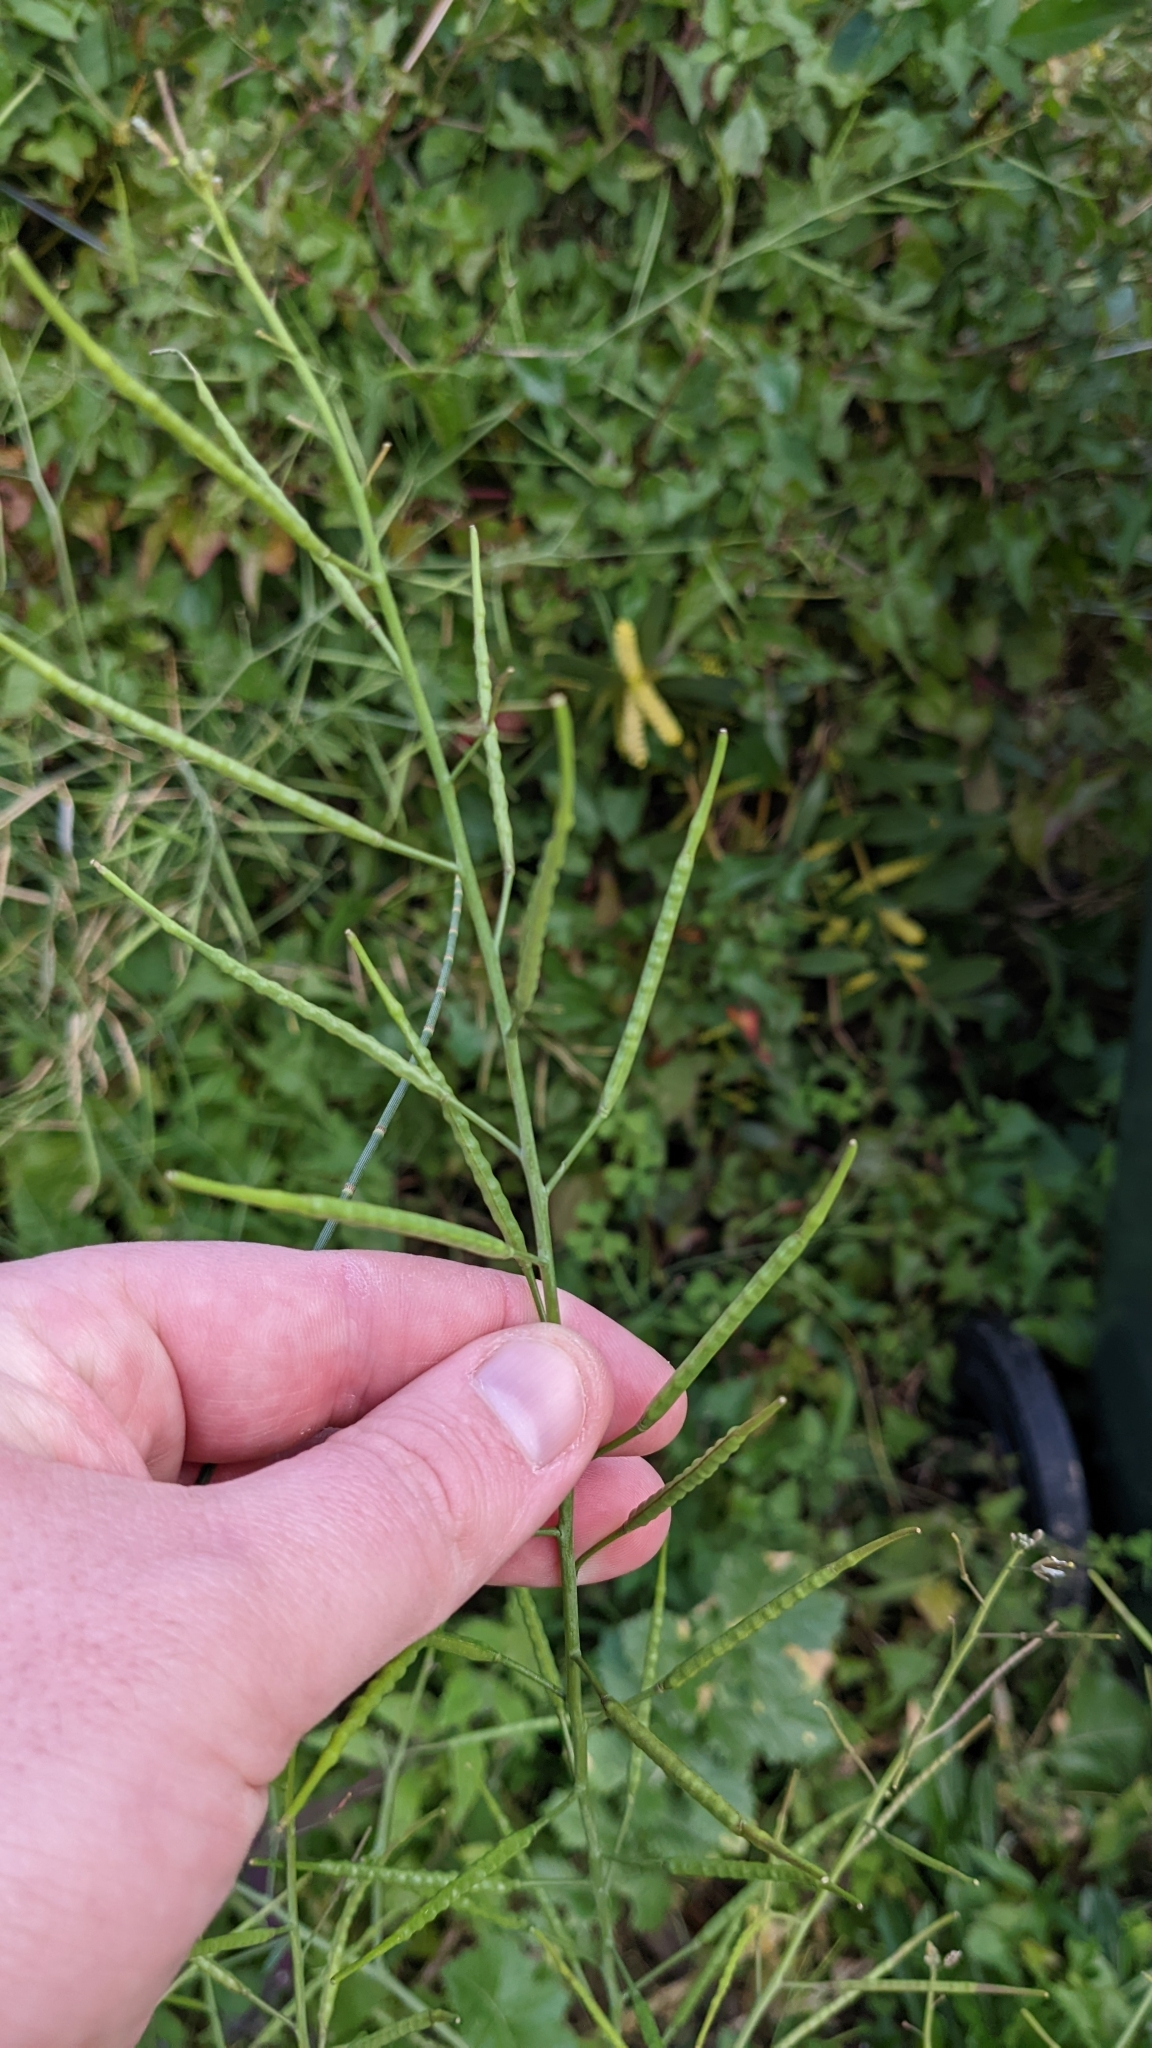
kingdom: Plantae
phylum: Tracheophyta
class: Magnoliopsida
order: Brassicales
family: Brassicaceae
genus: Brassica
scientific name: Brassica rapa
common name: Field mustard
